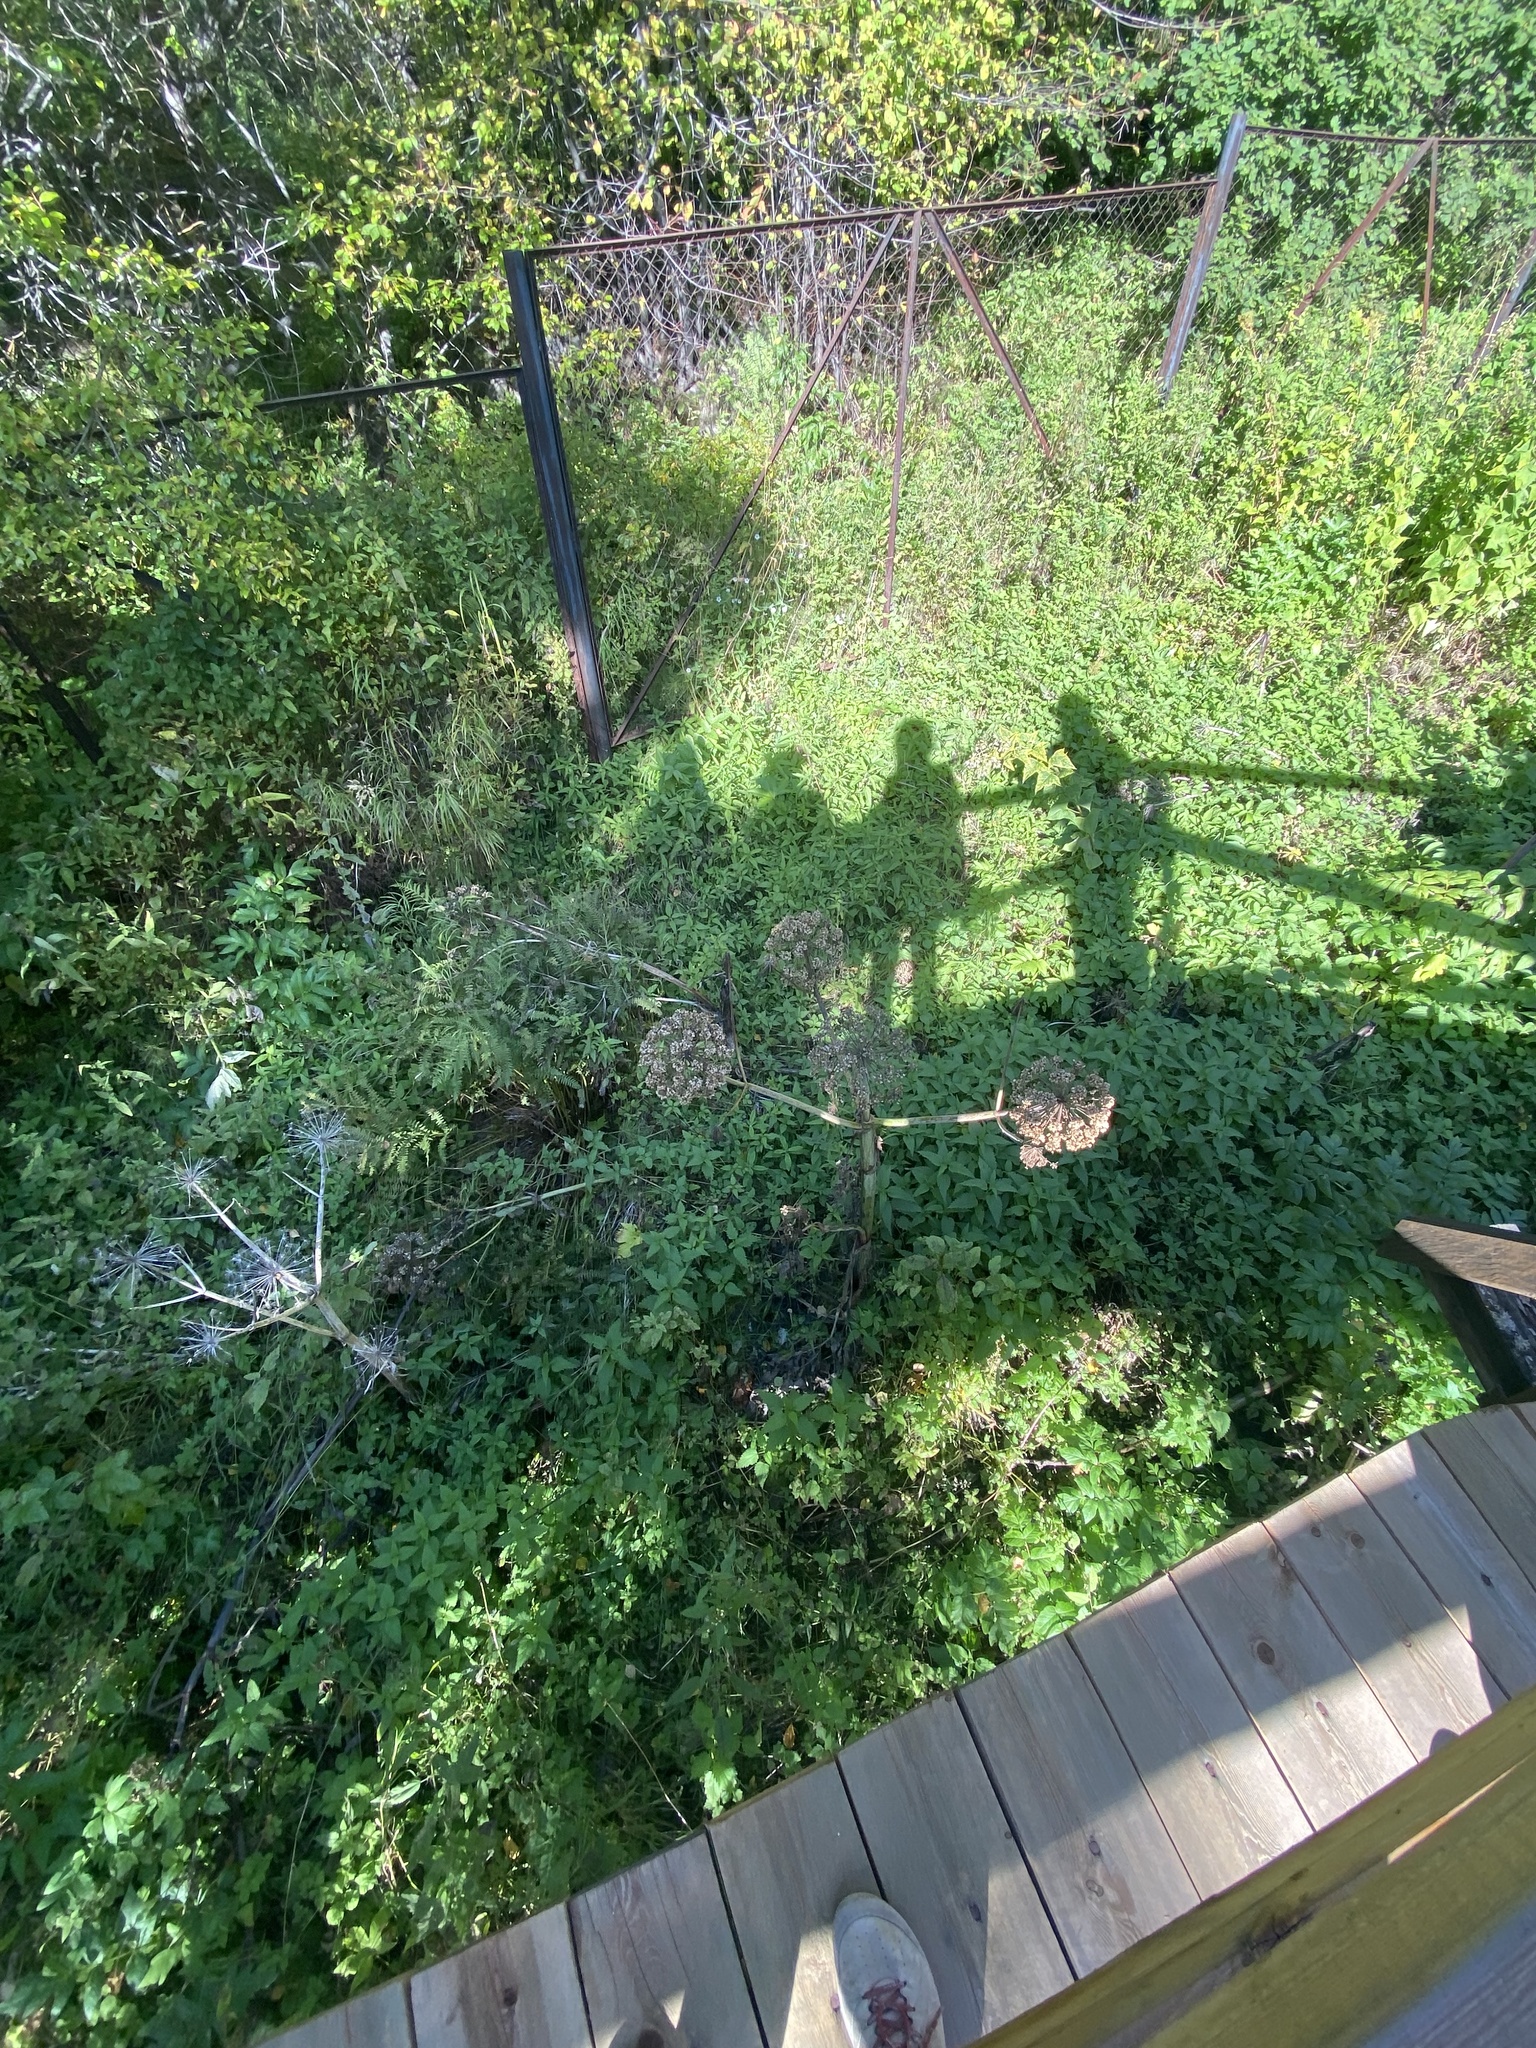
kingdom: Plantae
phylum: Tracheophyta
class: Magnoliopsida
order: Apiales
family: Apiaceae
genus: Angelica
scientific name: Angelica decurrens
